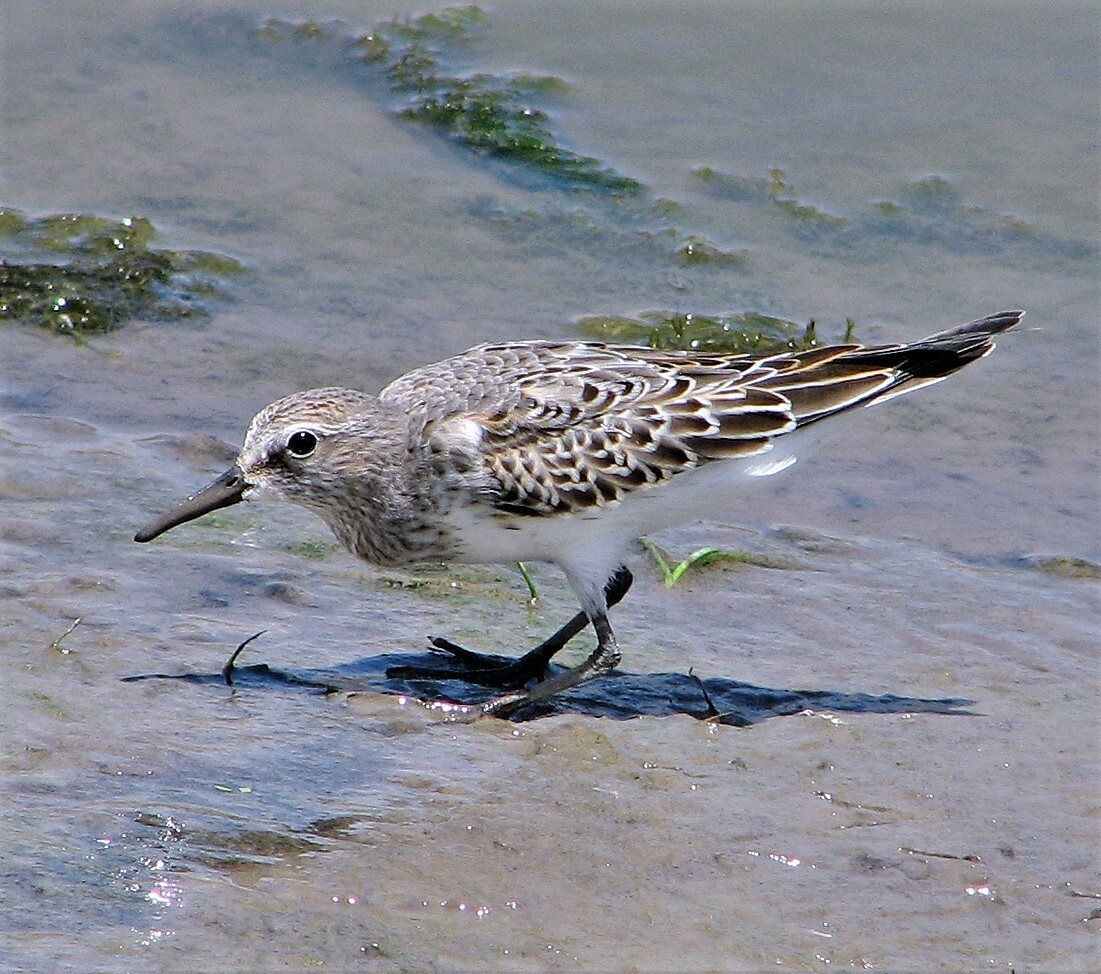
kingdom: Animalia
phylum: Chordata
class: Aves
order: Charadriiformes
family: Scolopacidae
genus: Calidris
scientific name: Calidris fuscicollis
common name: White-rumped sandpiper
